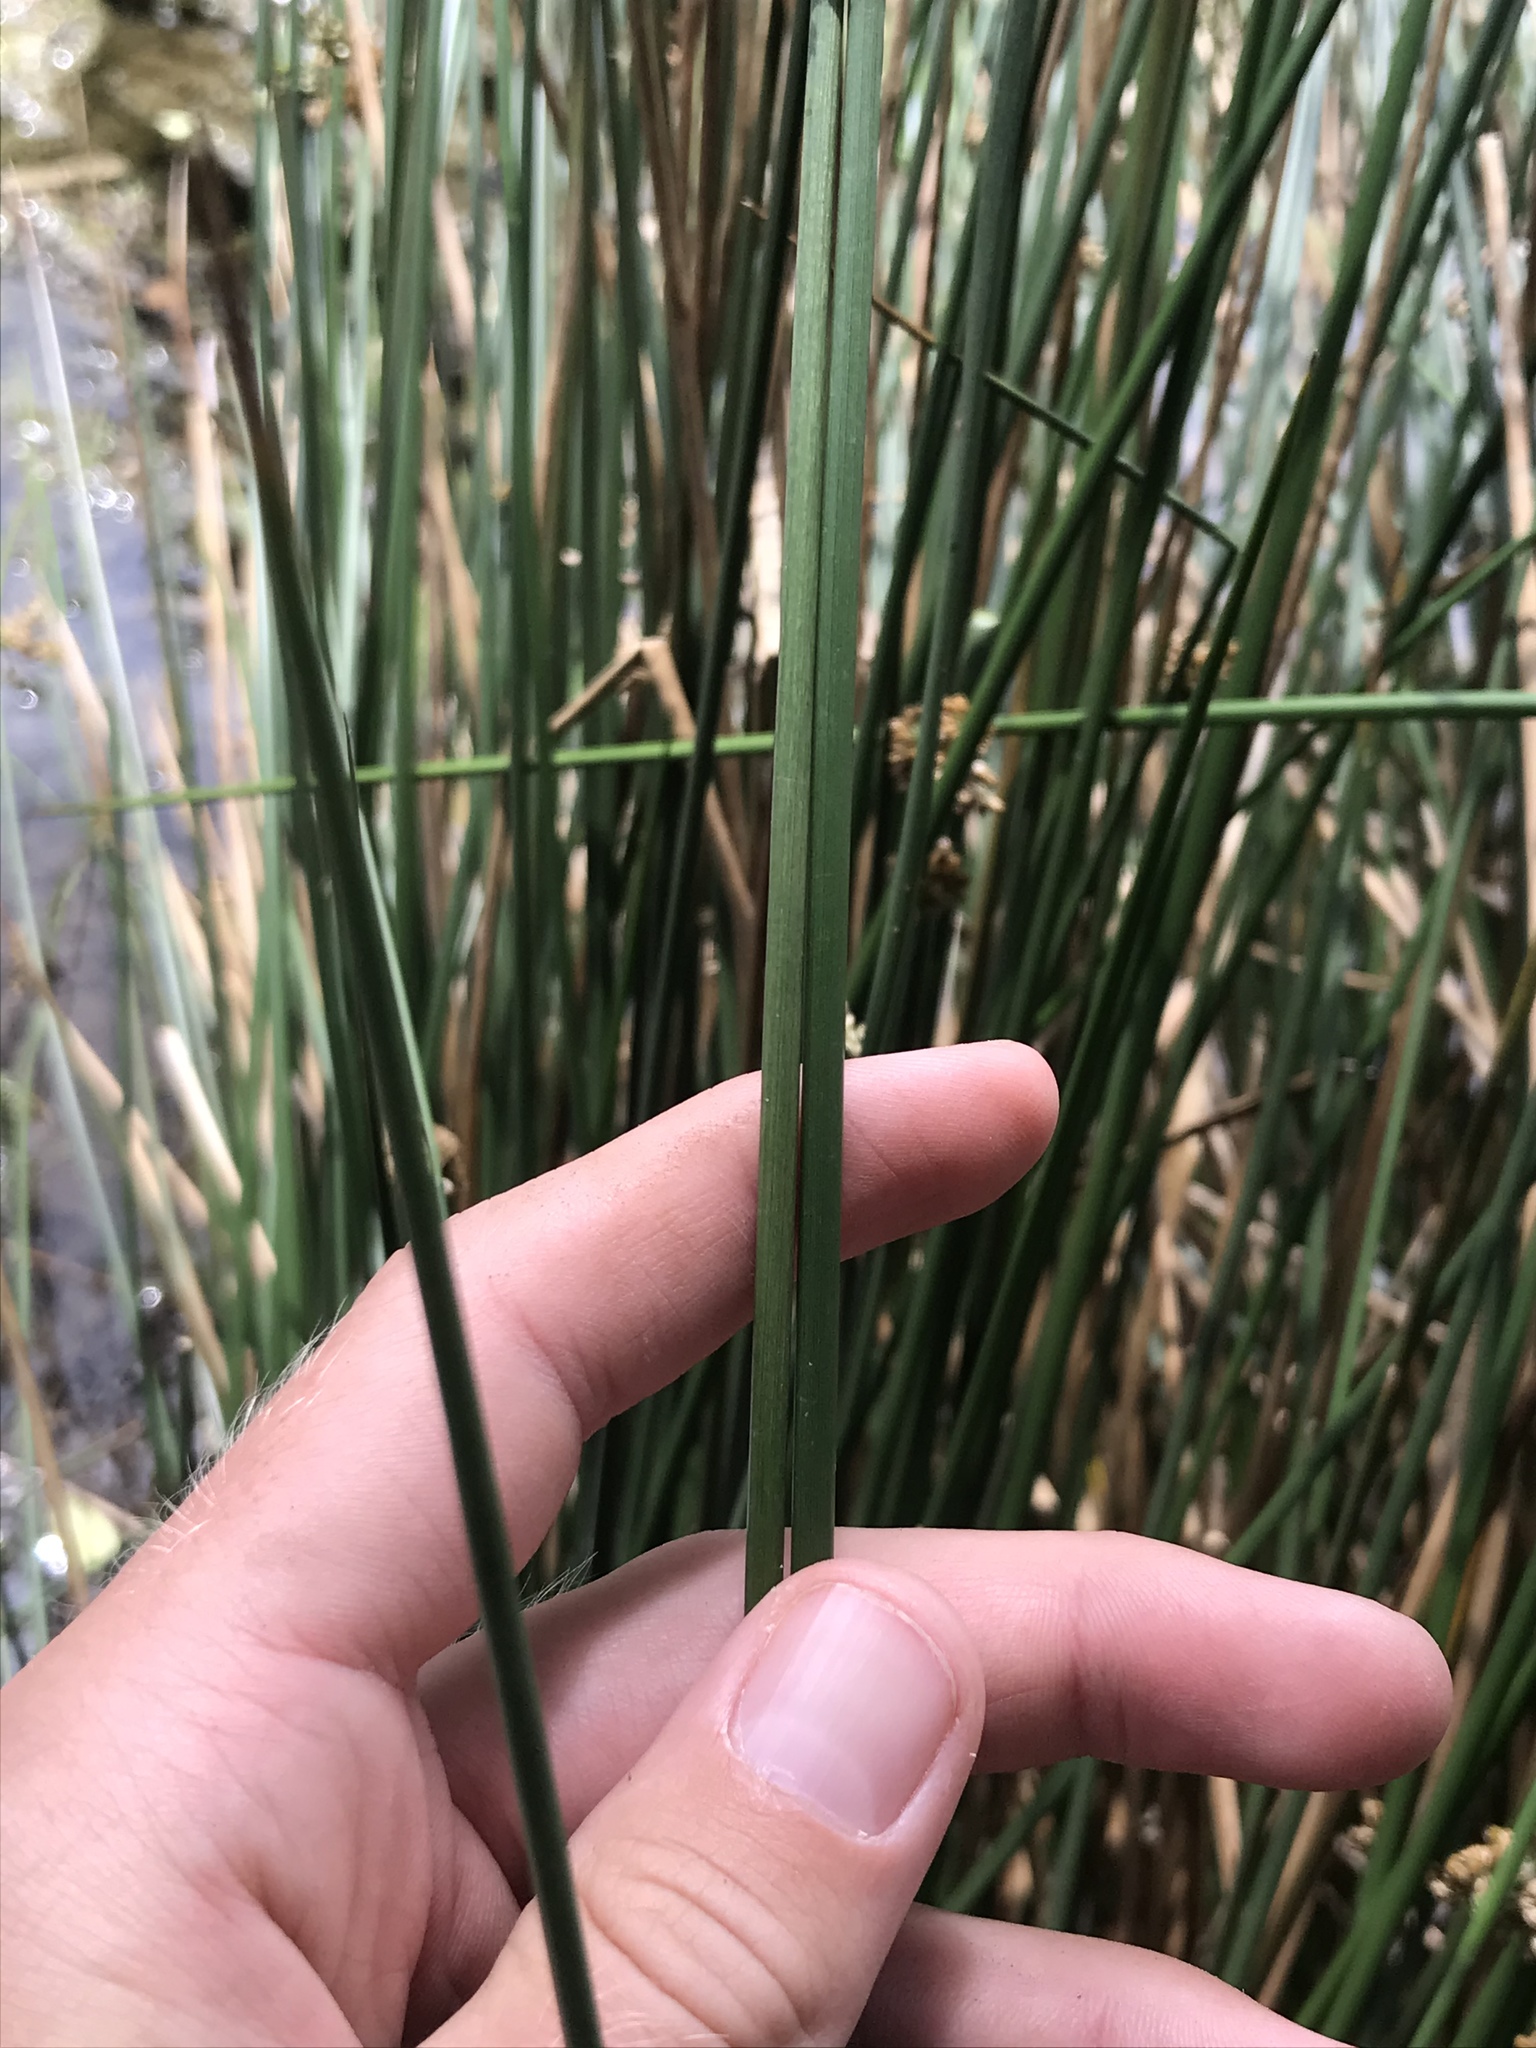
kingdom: Plantae
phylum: Tracheophyta
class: Liliopsida
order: Poales
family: Juncaceae
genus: Juncus
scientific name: Juncus effusus
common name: Soft rush
